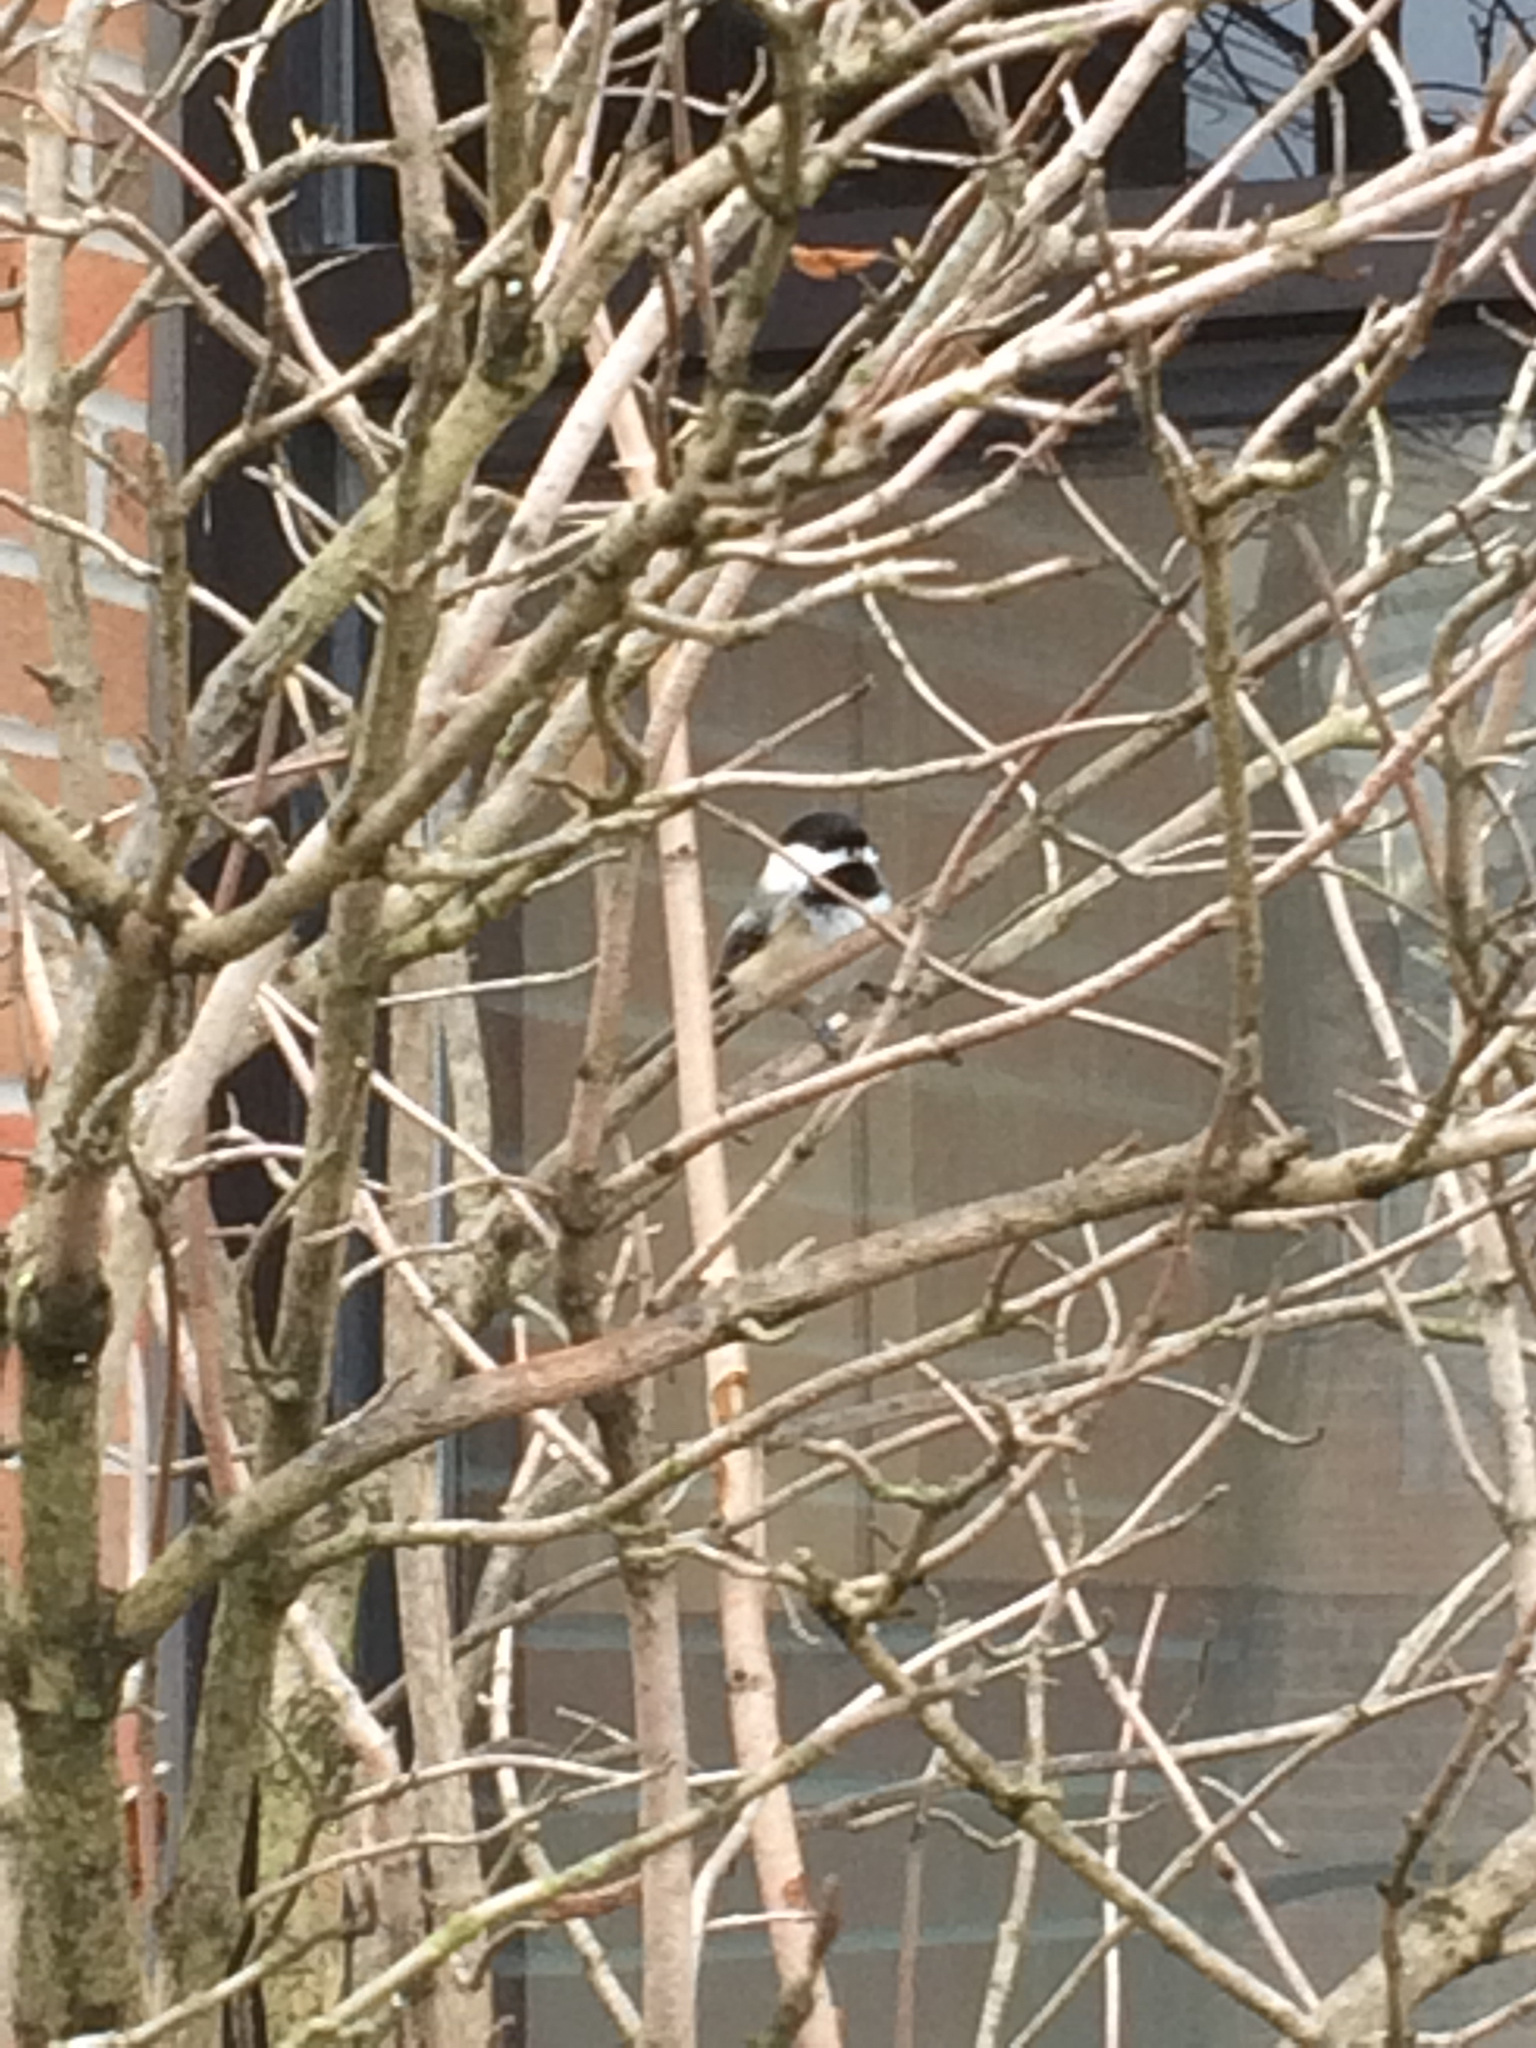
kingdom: Animalia
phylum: Chordata
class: Aves
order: Passeriformes
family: Paridae
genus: Poecile
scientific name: Poecile atricapillus
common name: Black-capped chickadee
